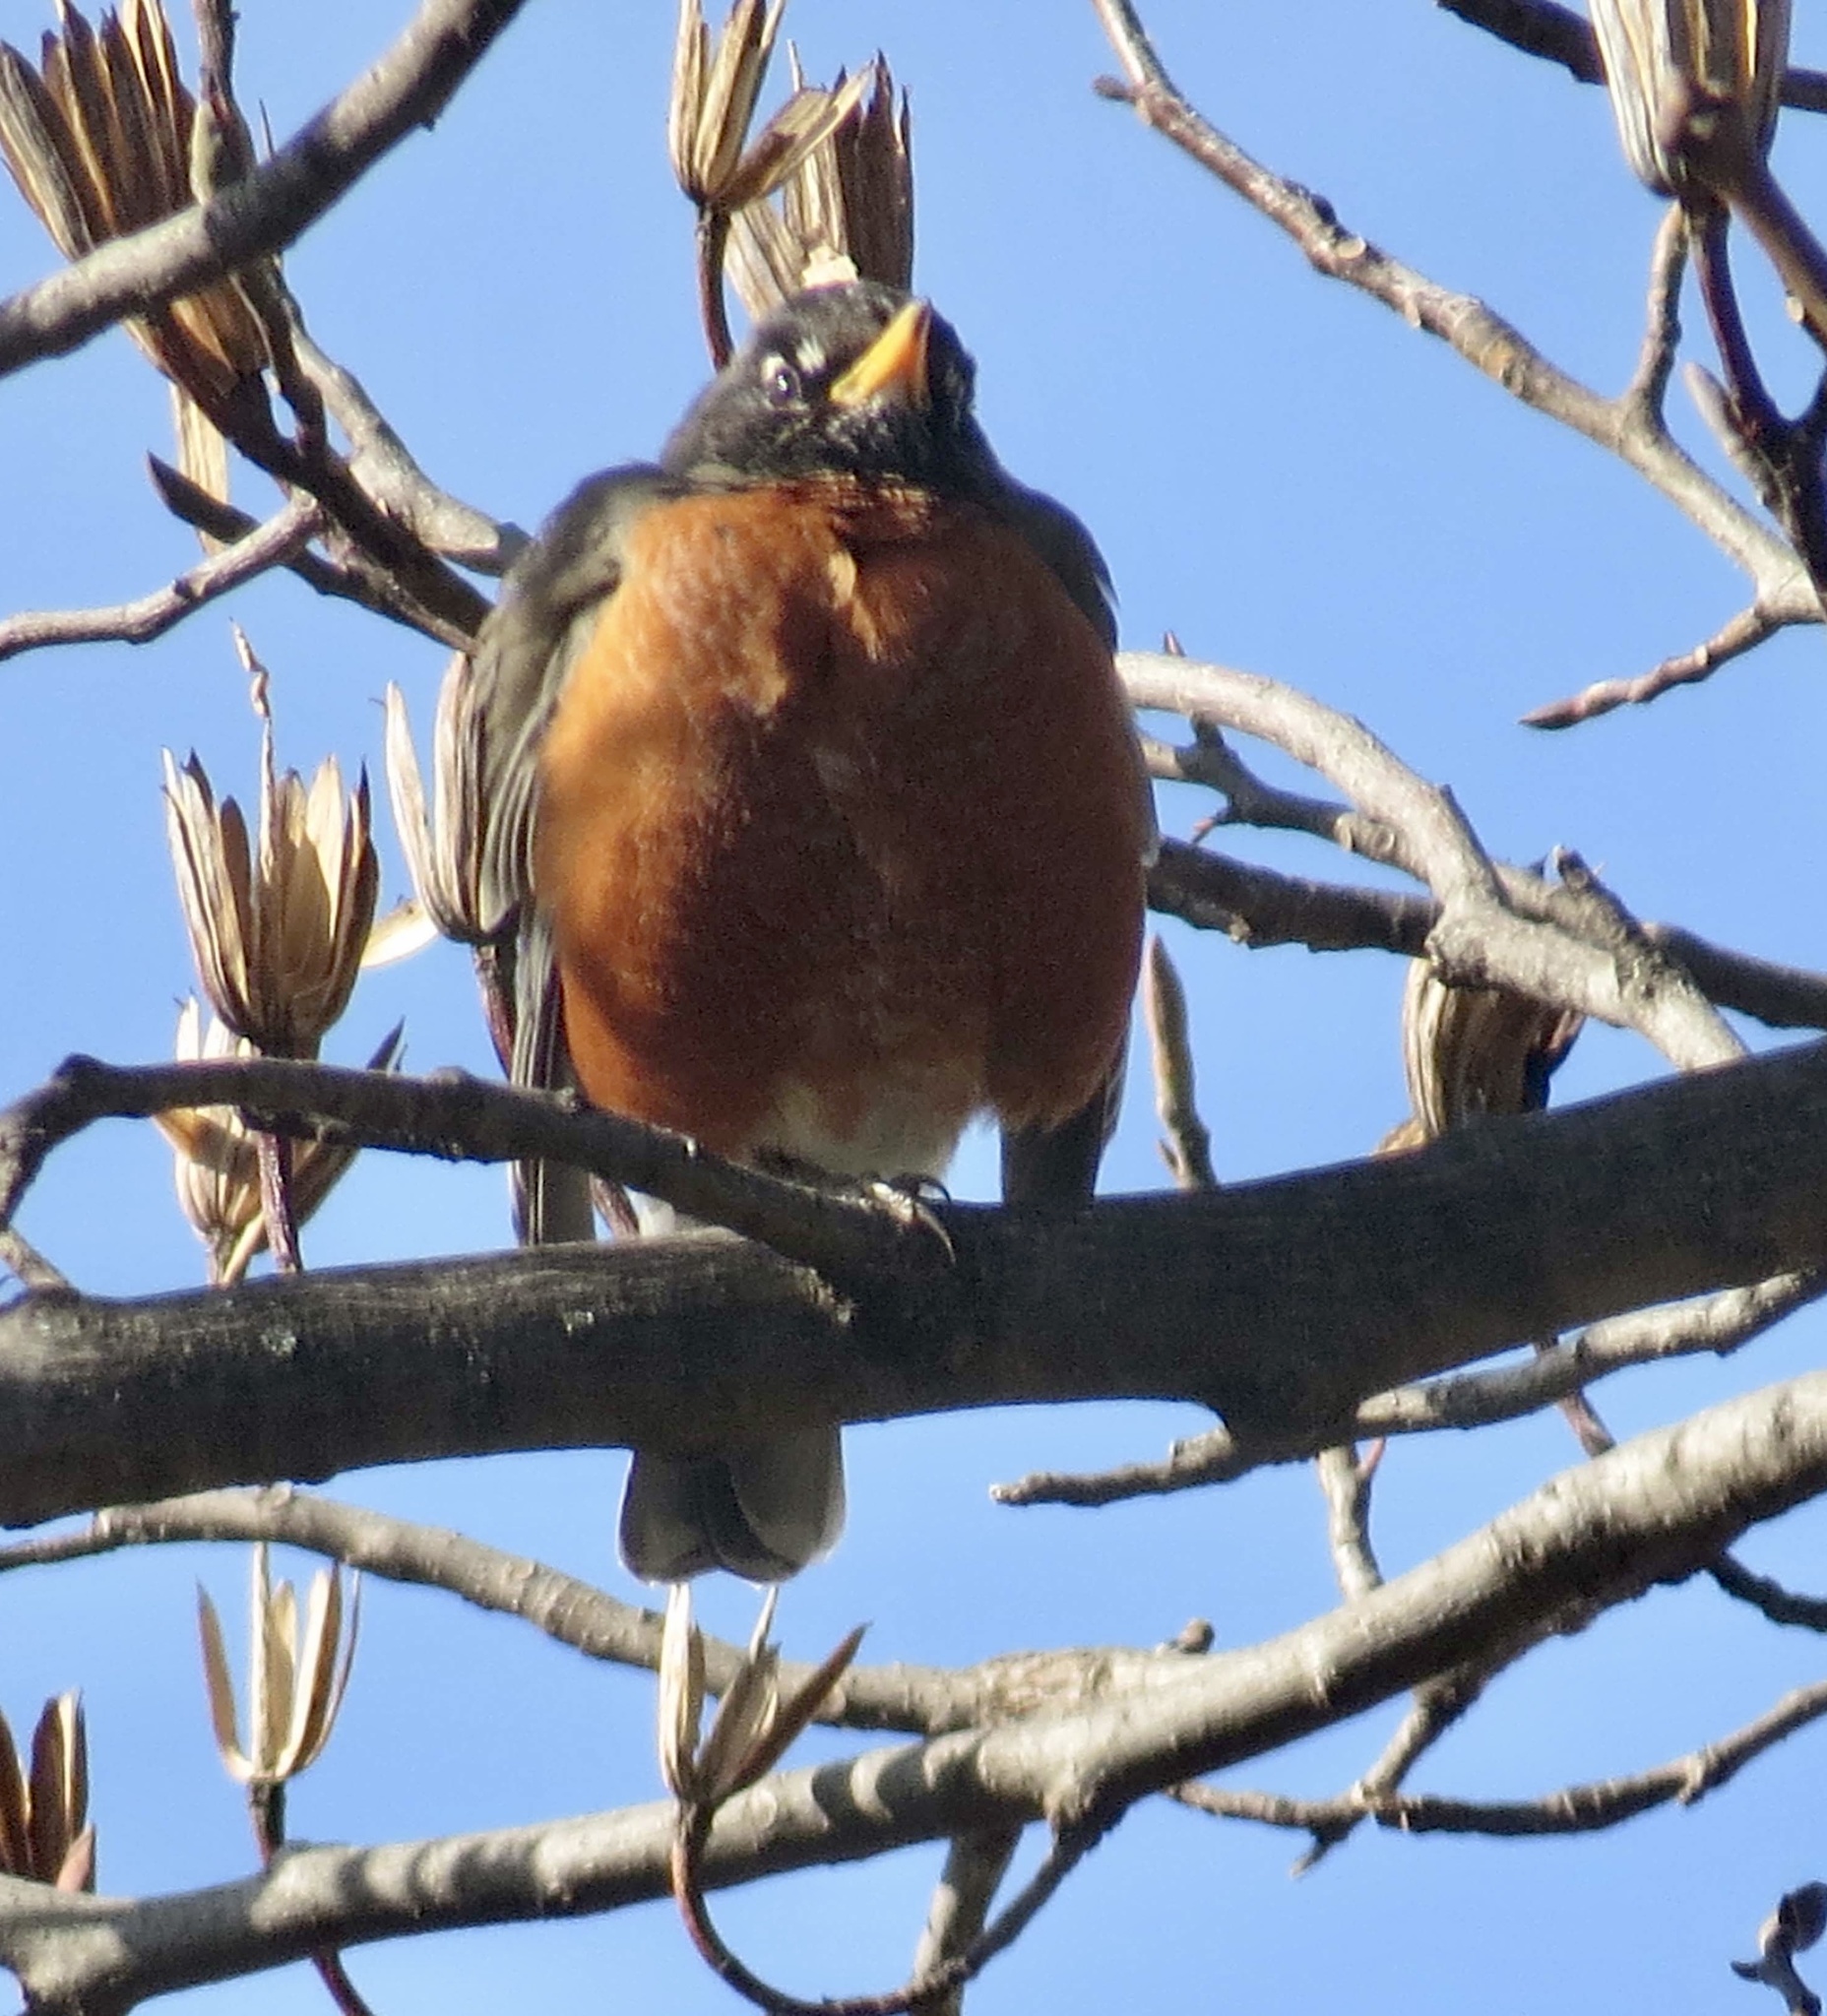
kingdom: Animalia
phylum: Chordata
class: Aves
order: Passeriformes
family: Turdidae
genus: Turdus
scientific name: Turdus migratorius
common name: American robin
